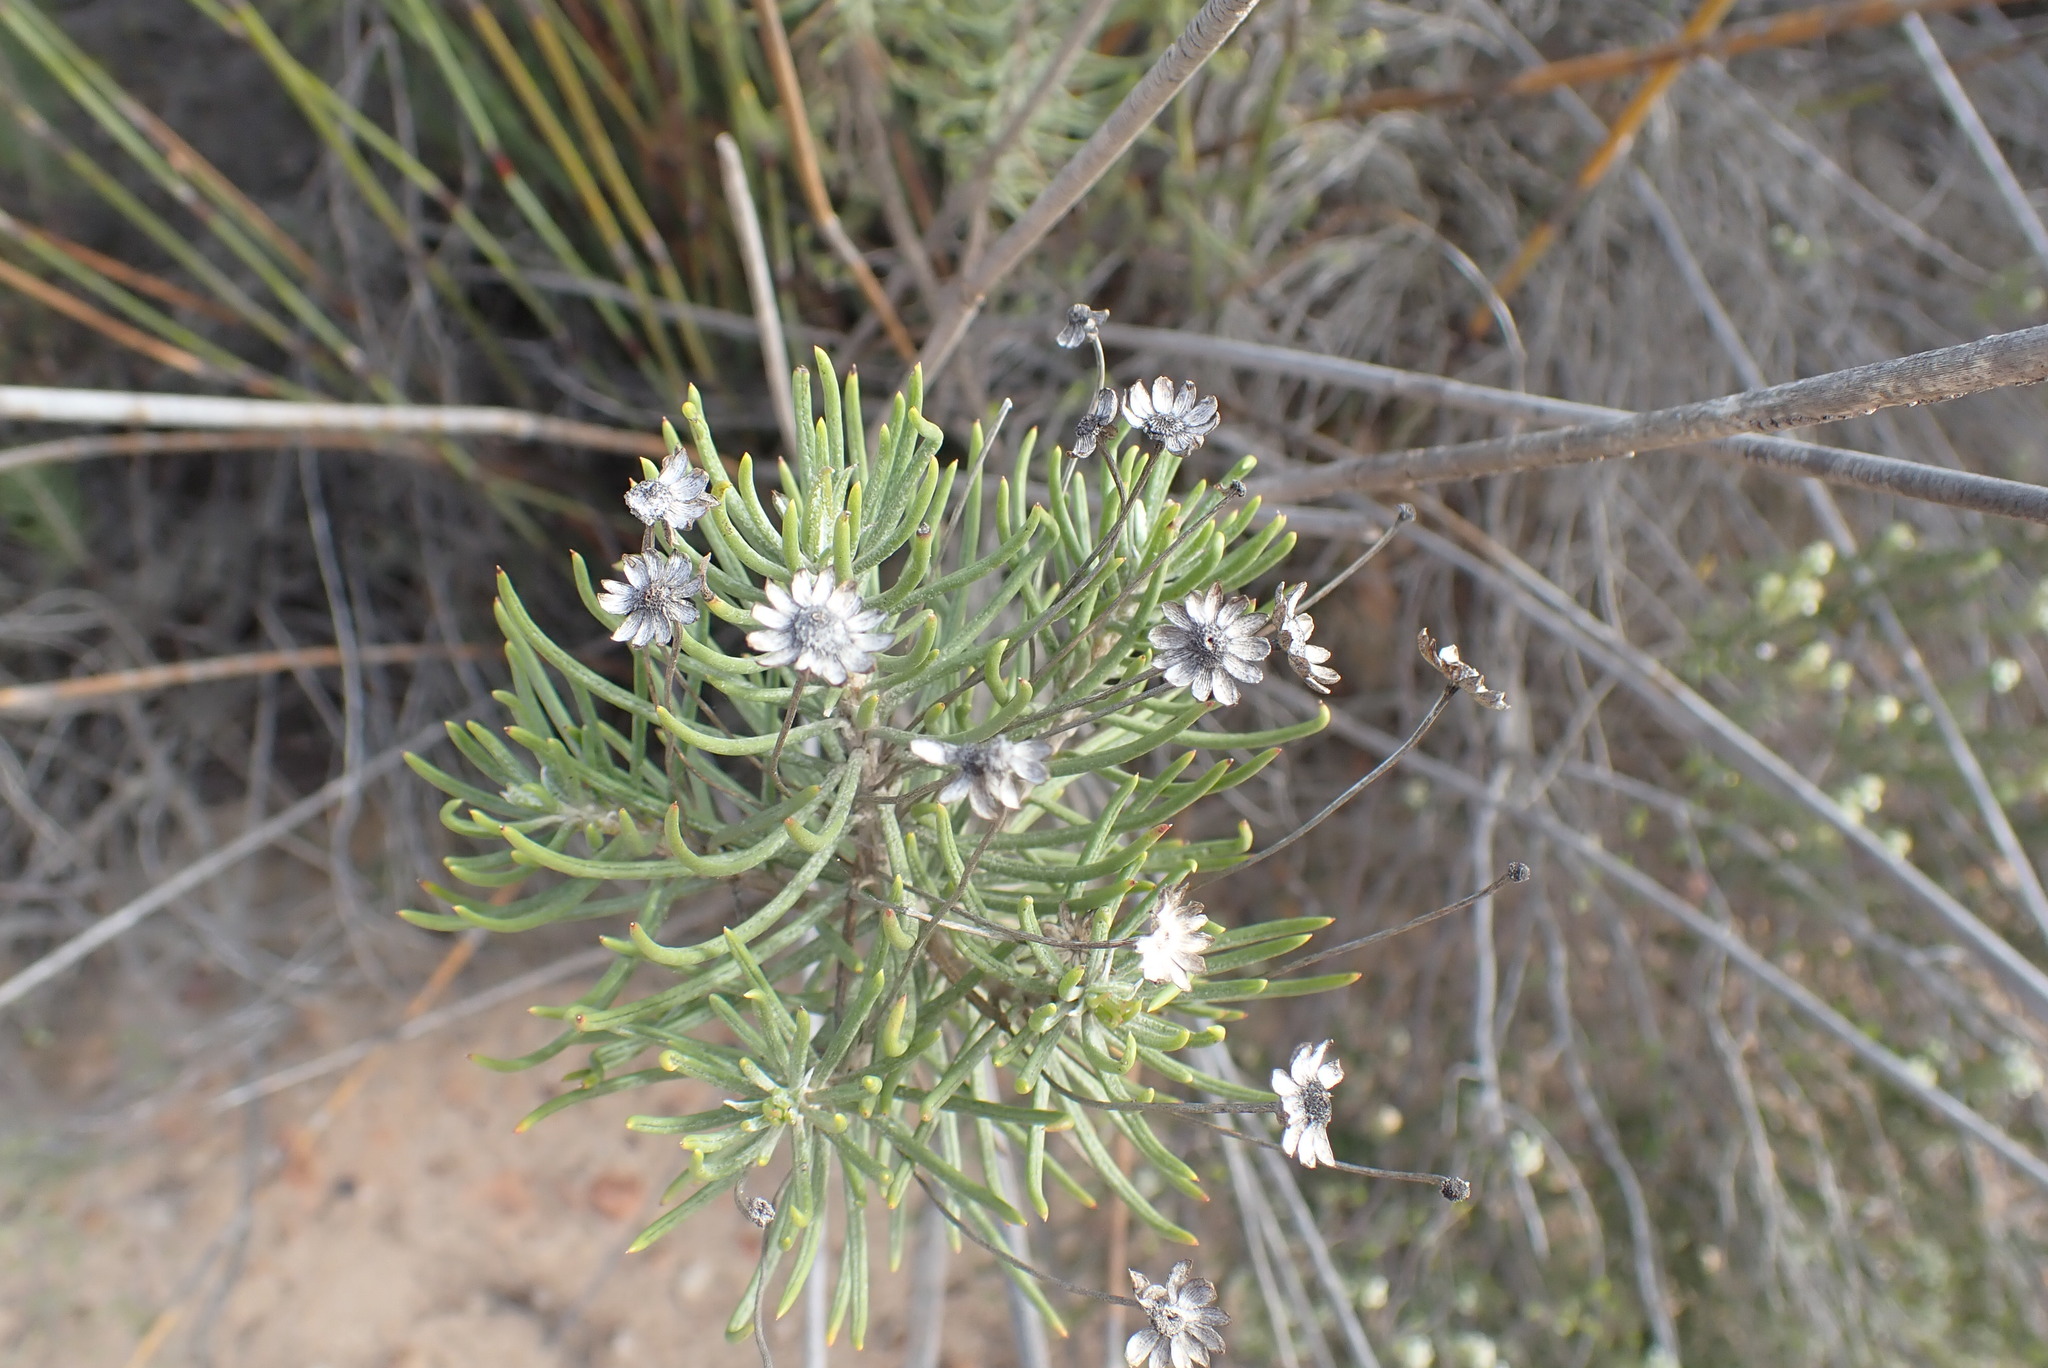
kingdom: Plantae
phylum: Tracheophyta
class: Magnoliopsida
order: Asterales
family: Asteraceae
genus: Euryops
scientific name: Euryops rehmannii
